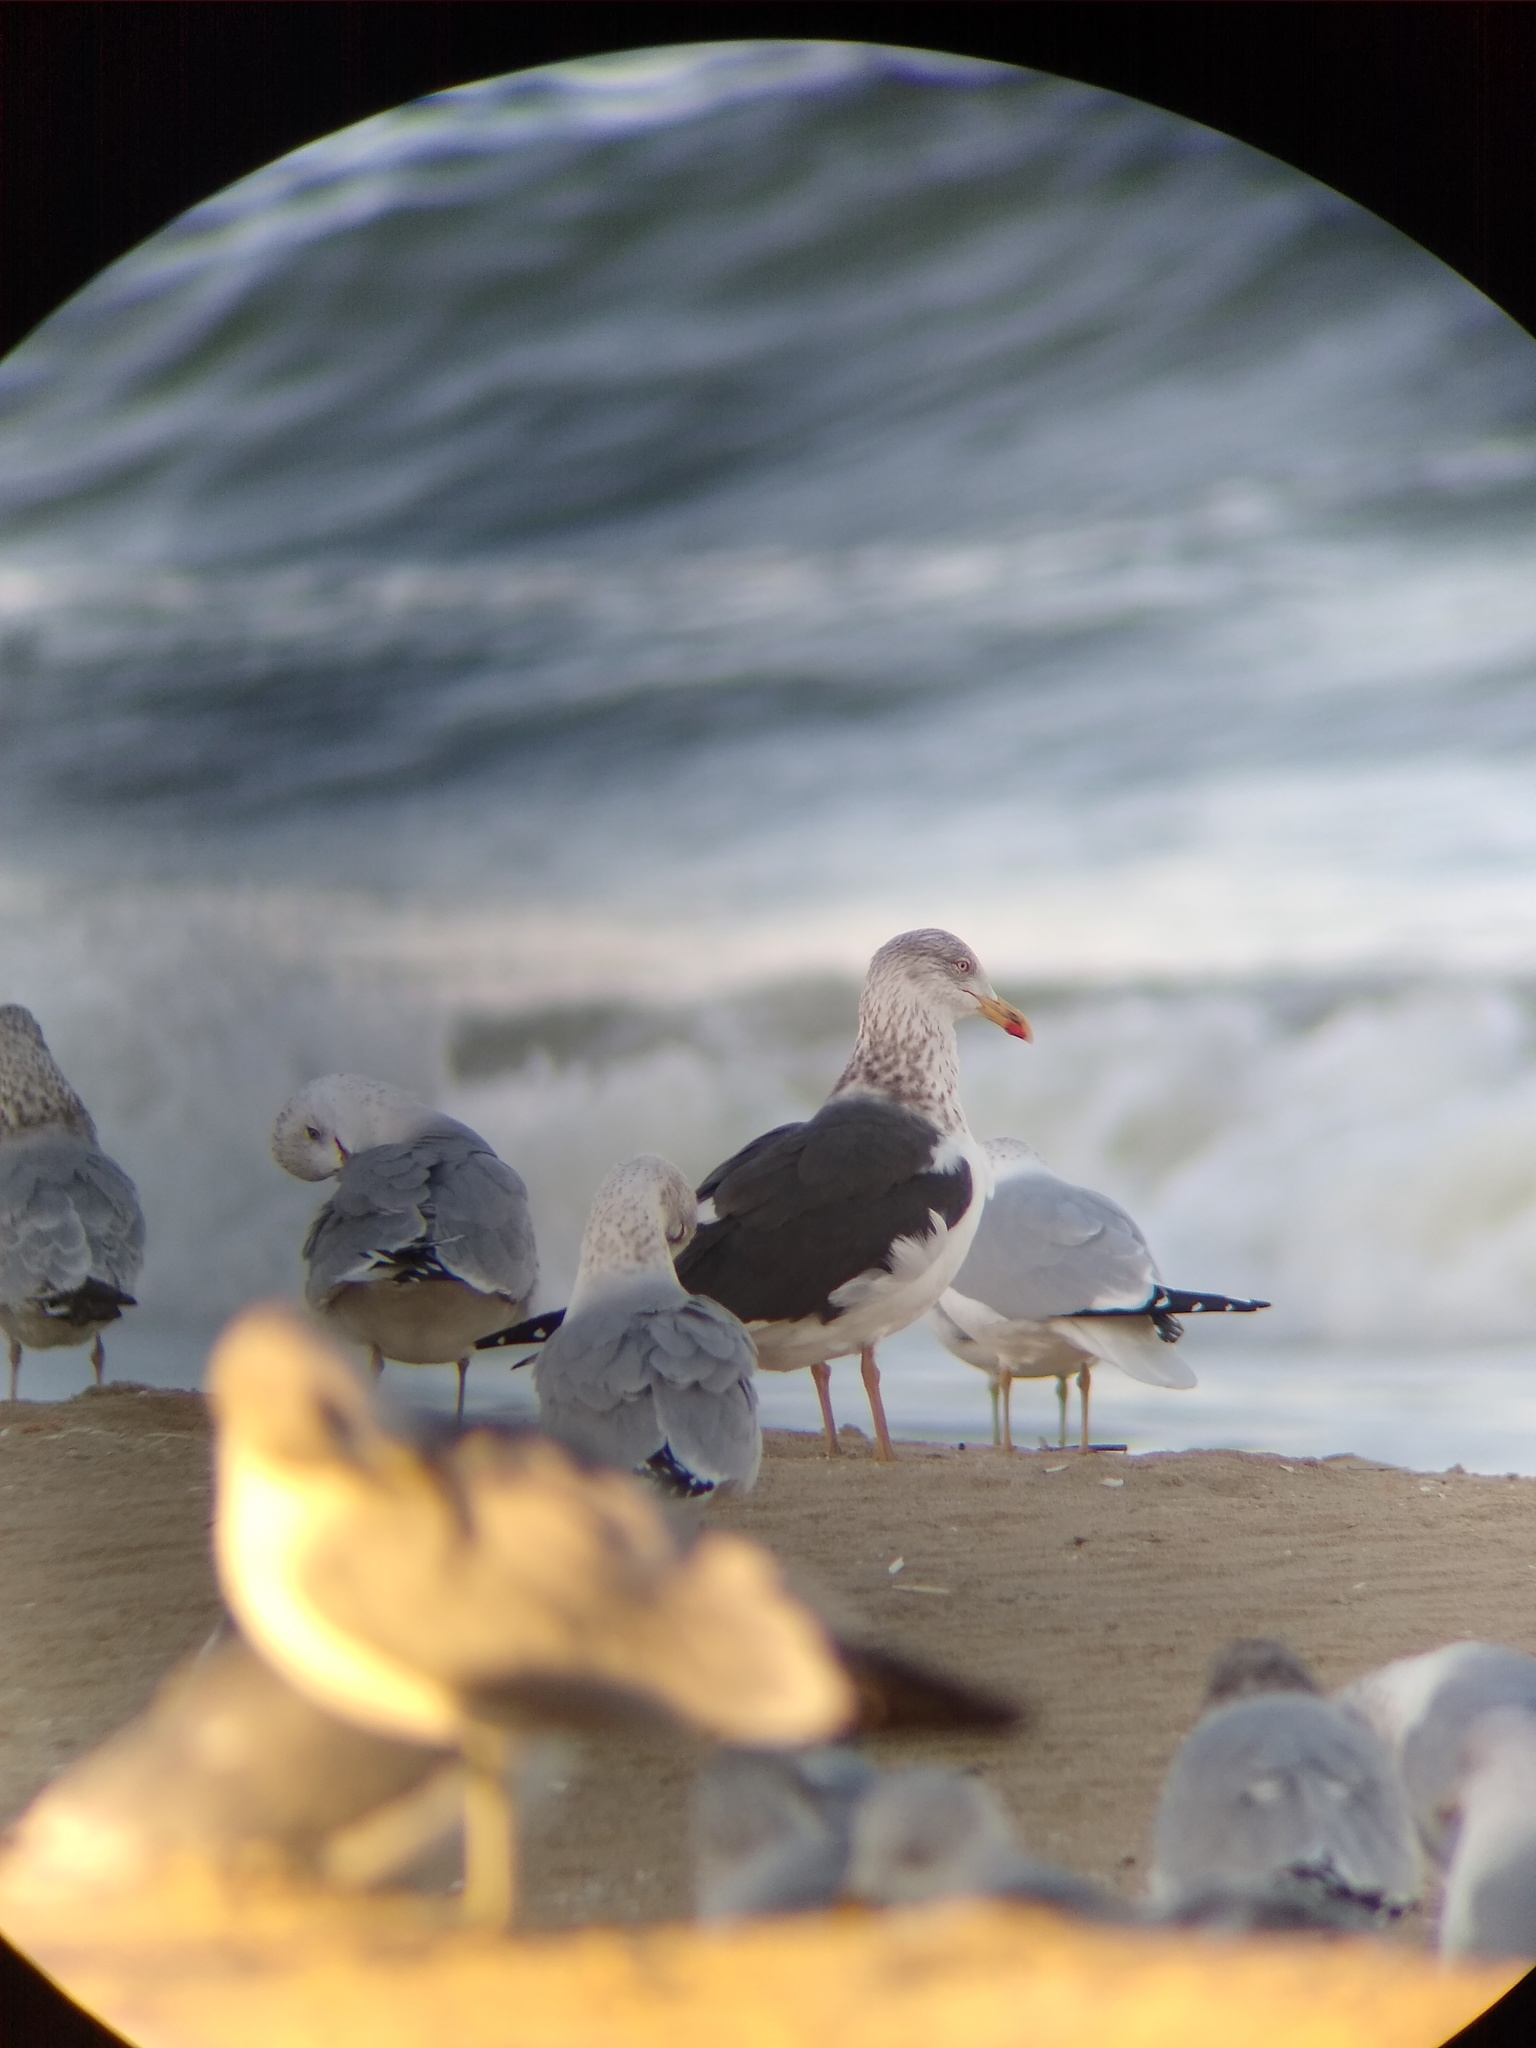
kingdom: Animalia
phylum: Chordata
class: Aves
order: Charadriiformes
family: Laridae
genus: Larus
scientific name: Larus fuscus
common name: Lesser black-backed gull
